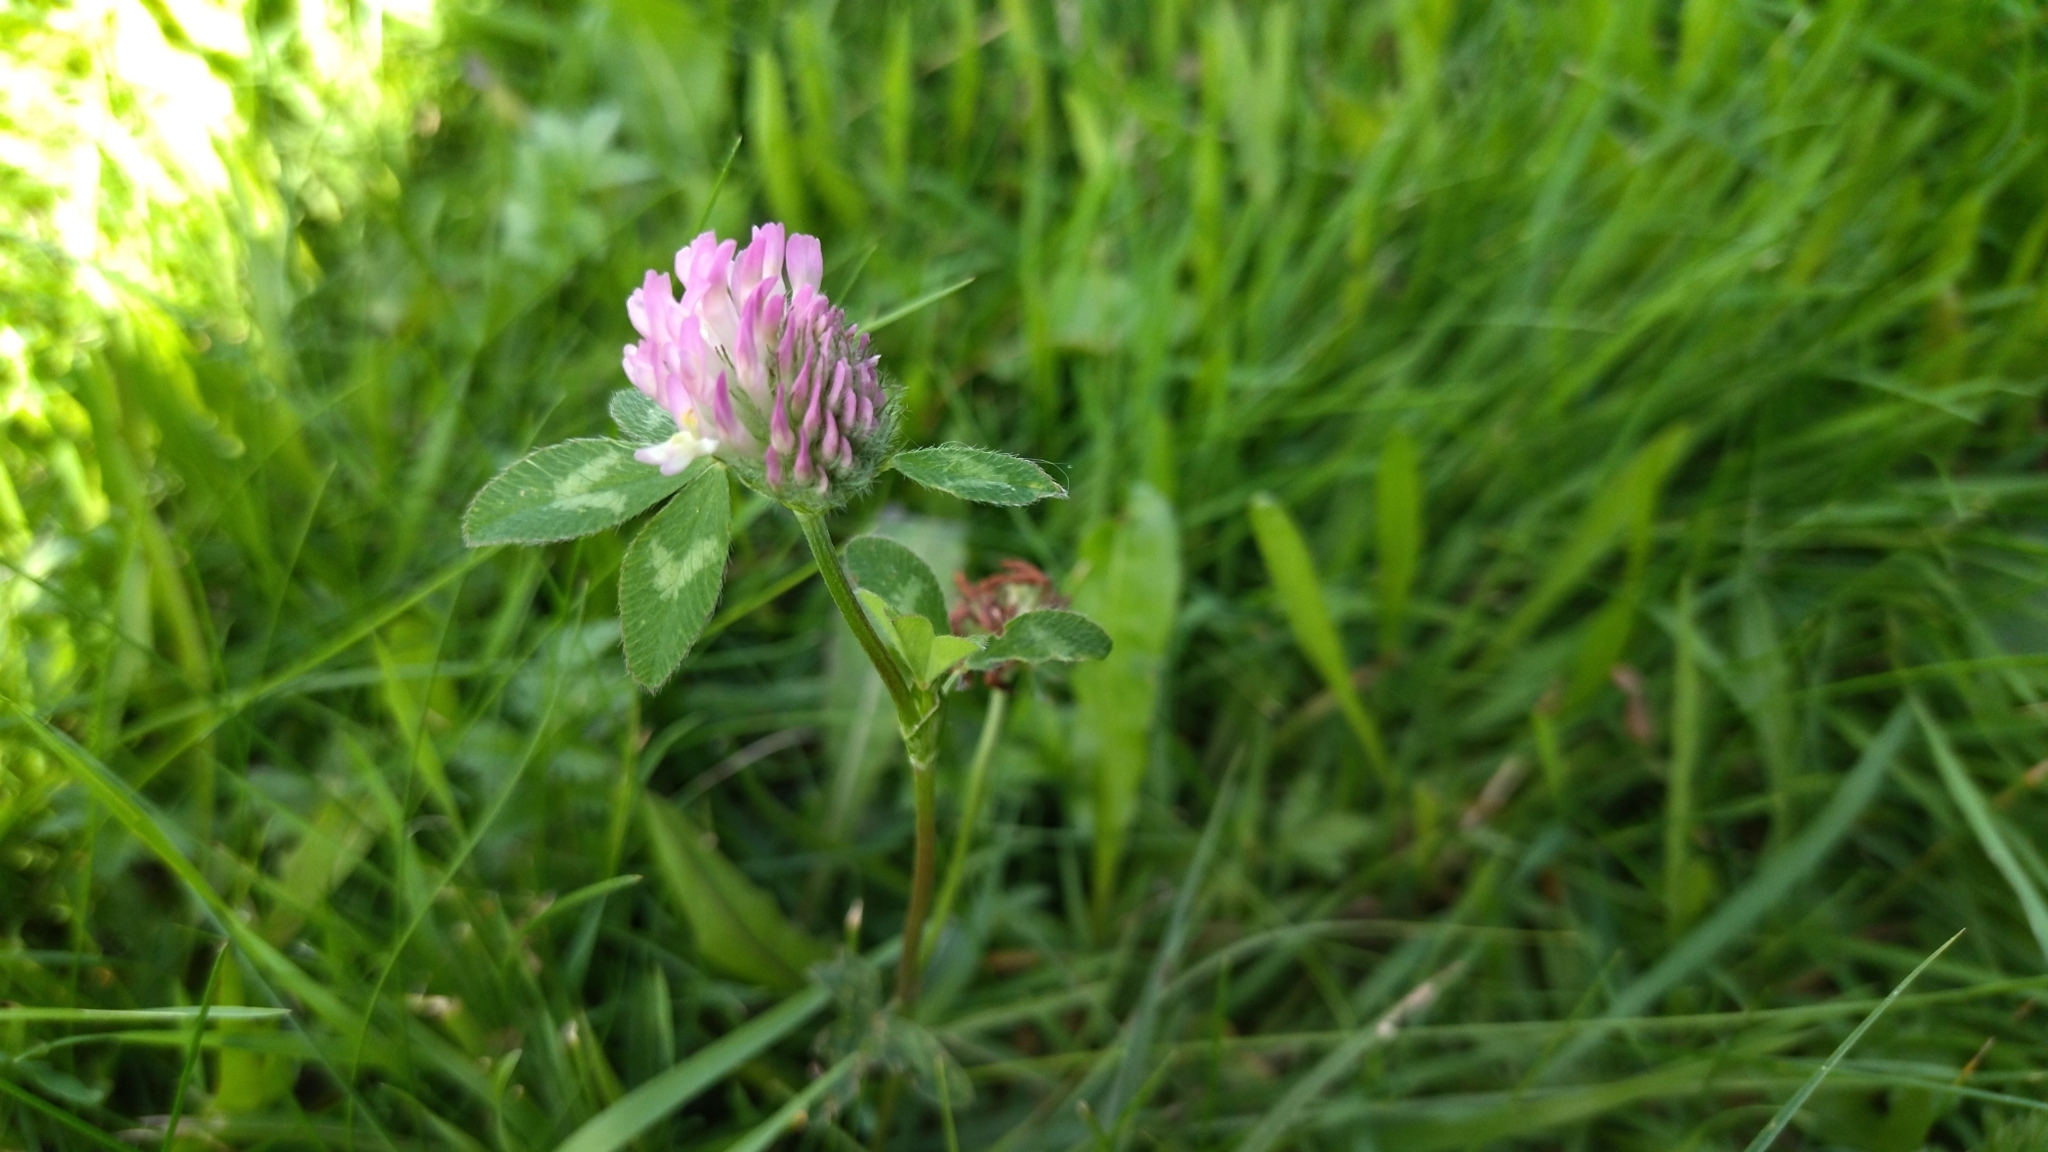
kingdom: Plantae
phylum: Tracheophyta
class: Magnoliopsida
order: Fabales
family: Fabaceae
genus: Trifolium
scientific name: Trifolium pratense
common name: Red clover
